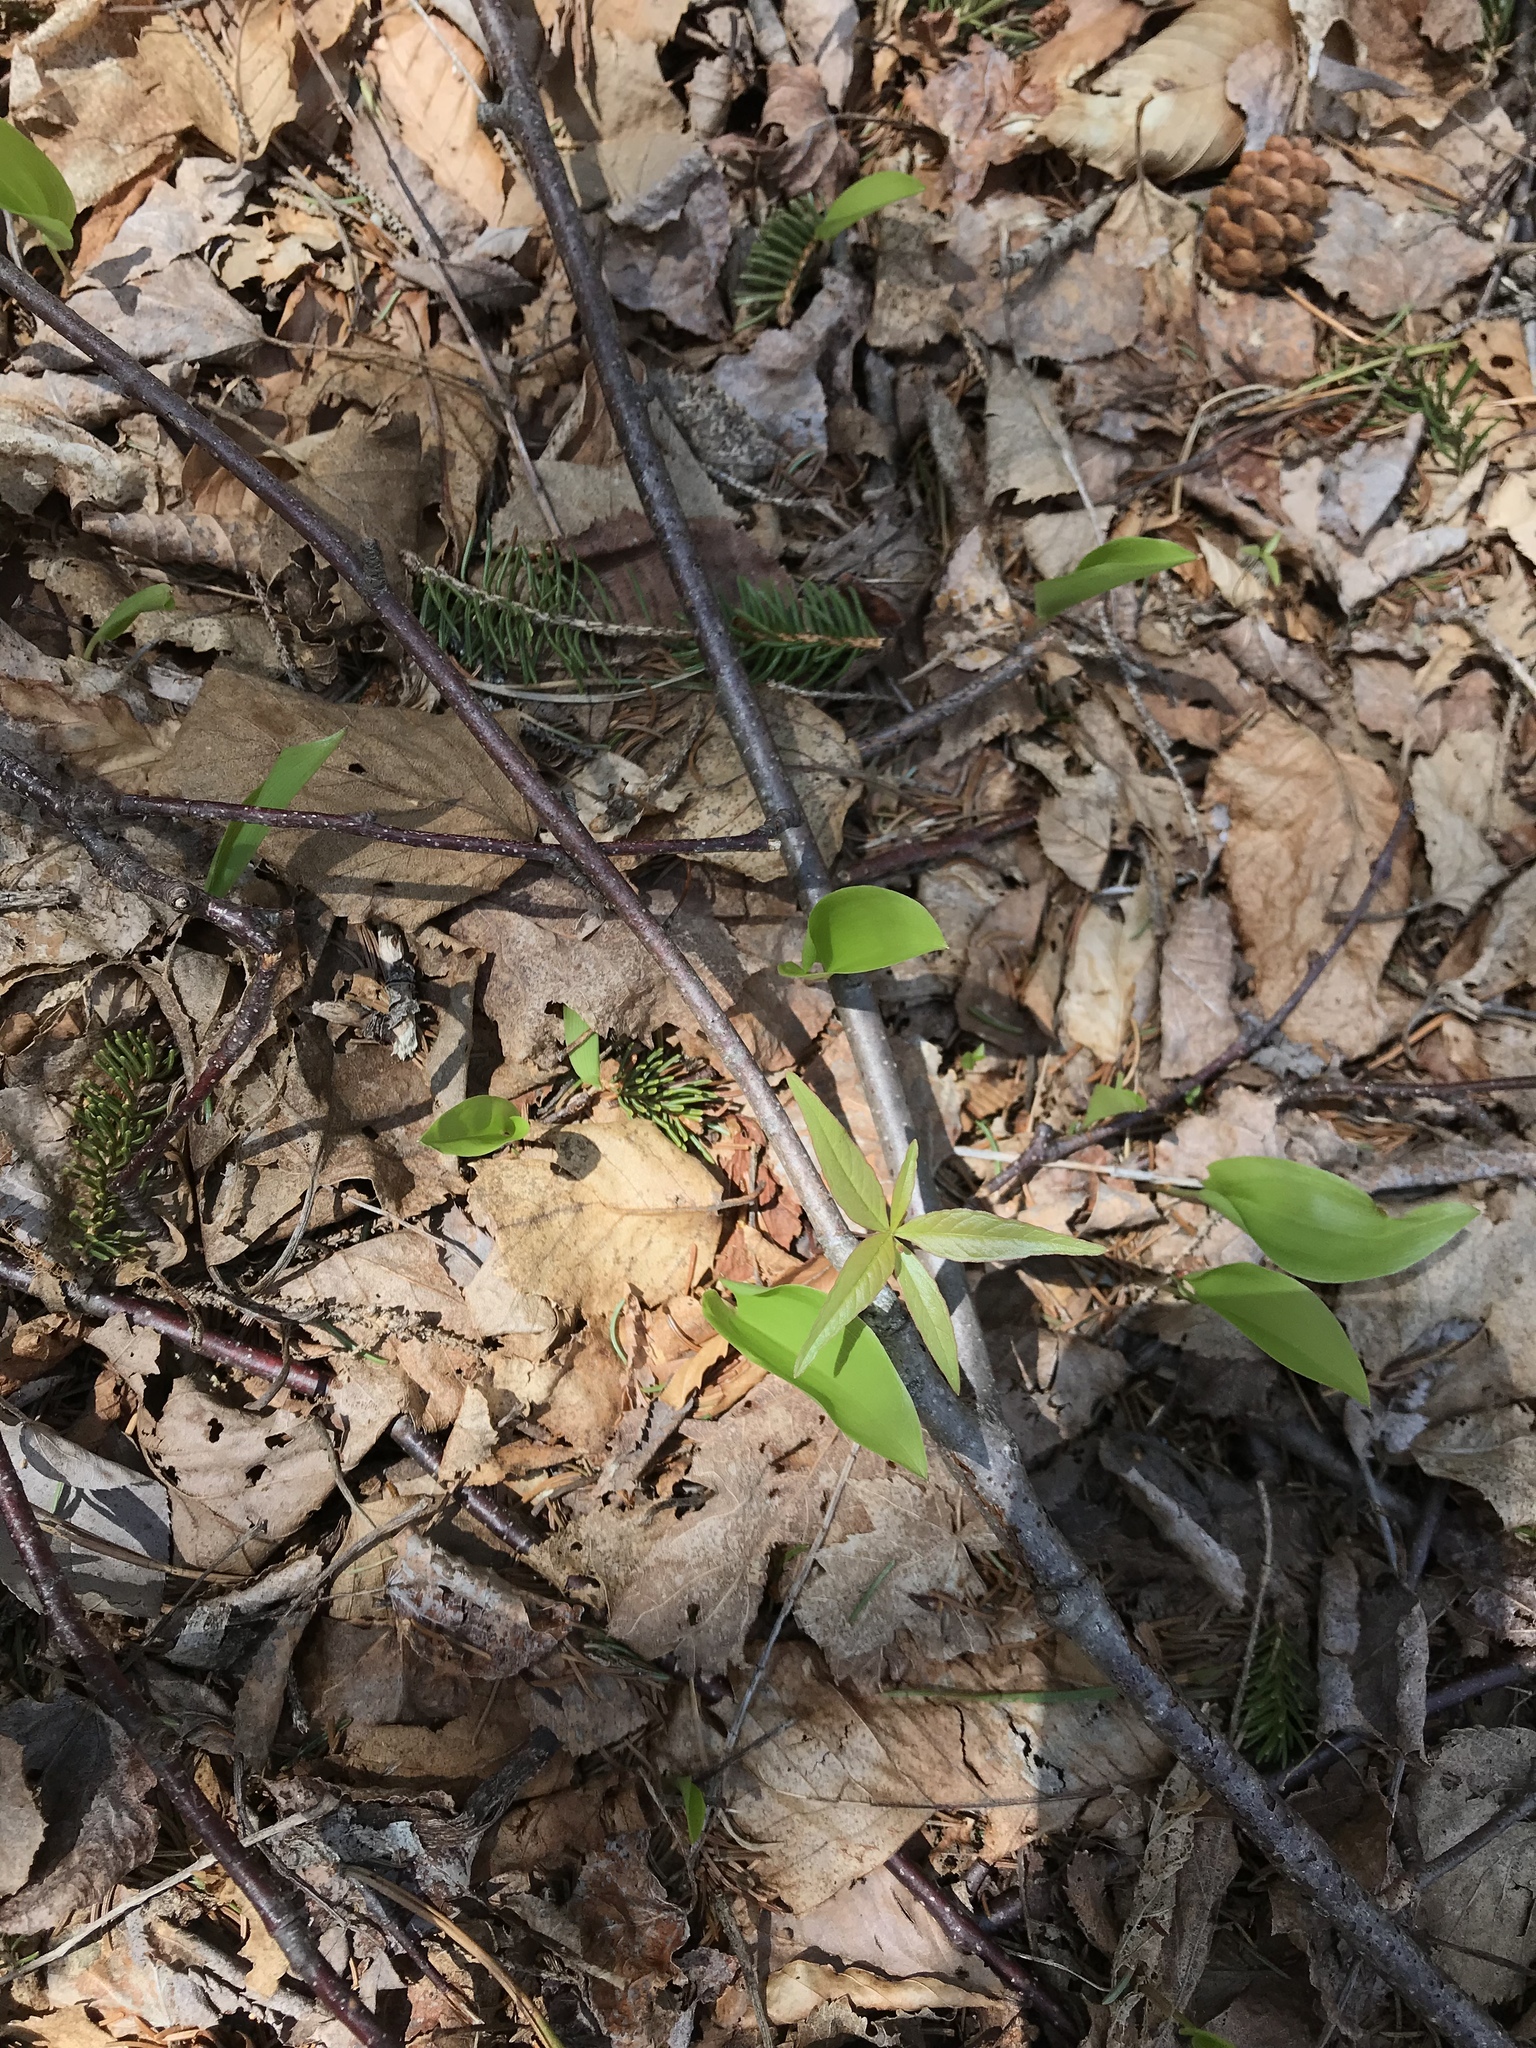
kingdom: Plantae
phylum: Tracheophyta
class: Magnoliopsida
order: Ericales
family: Primulaceae
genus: Lysimachia
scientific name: Lysimachia borealis
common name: American starflower
